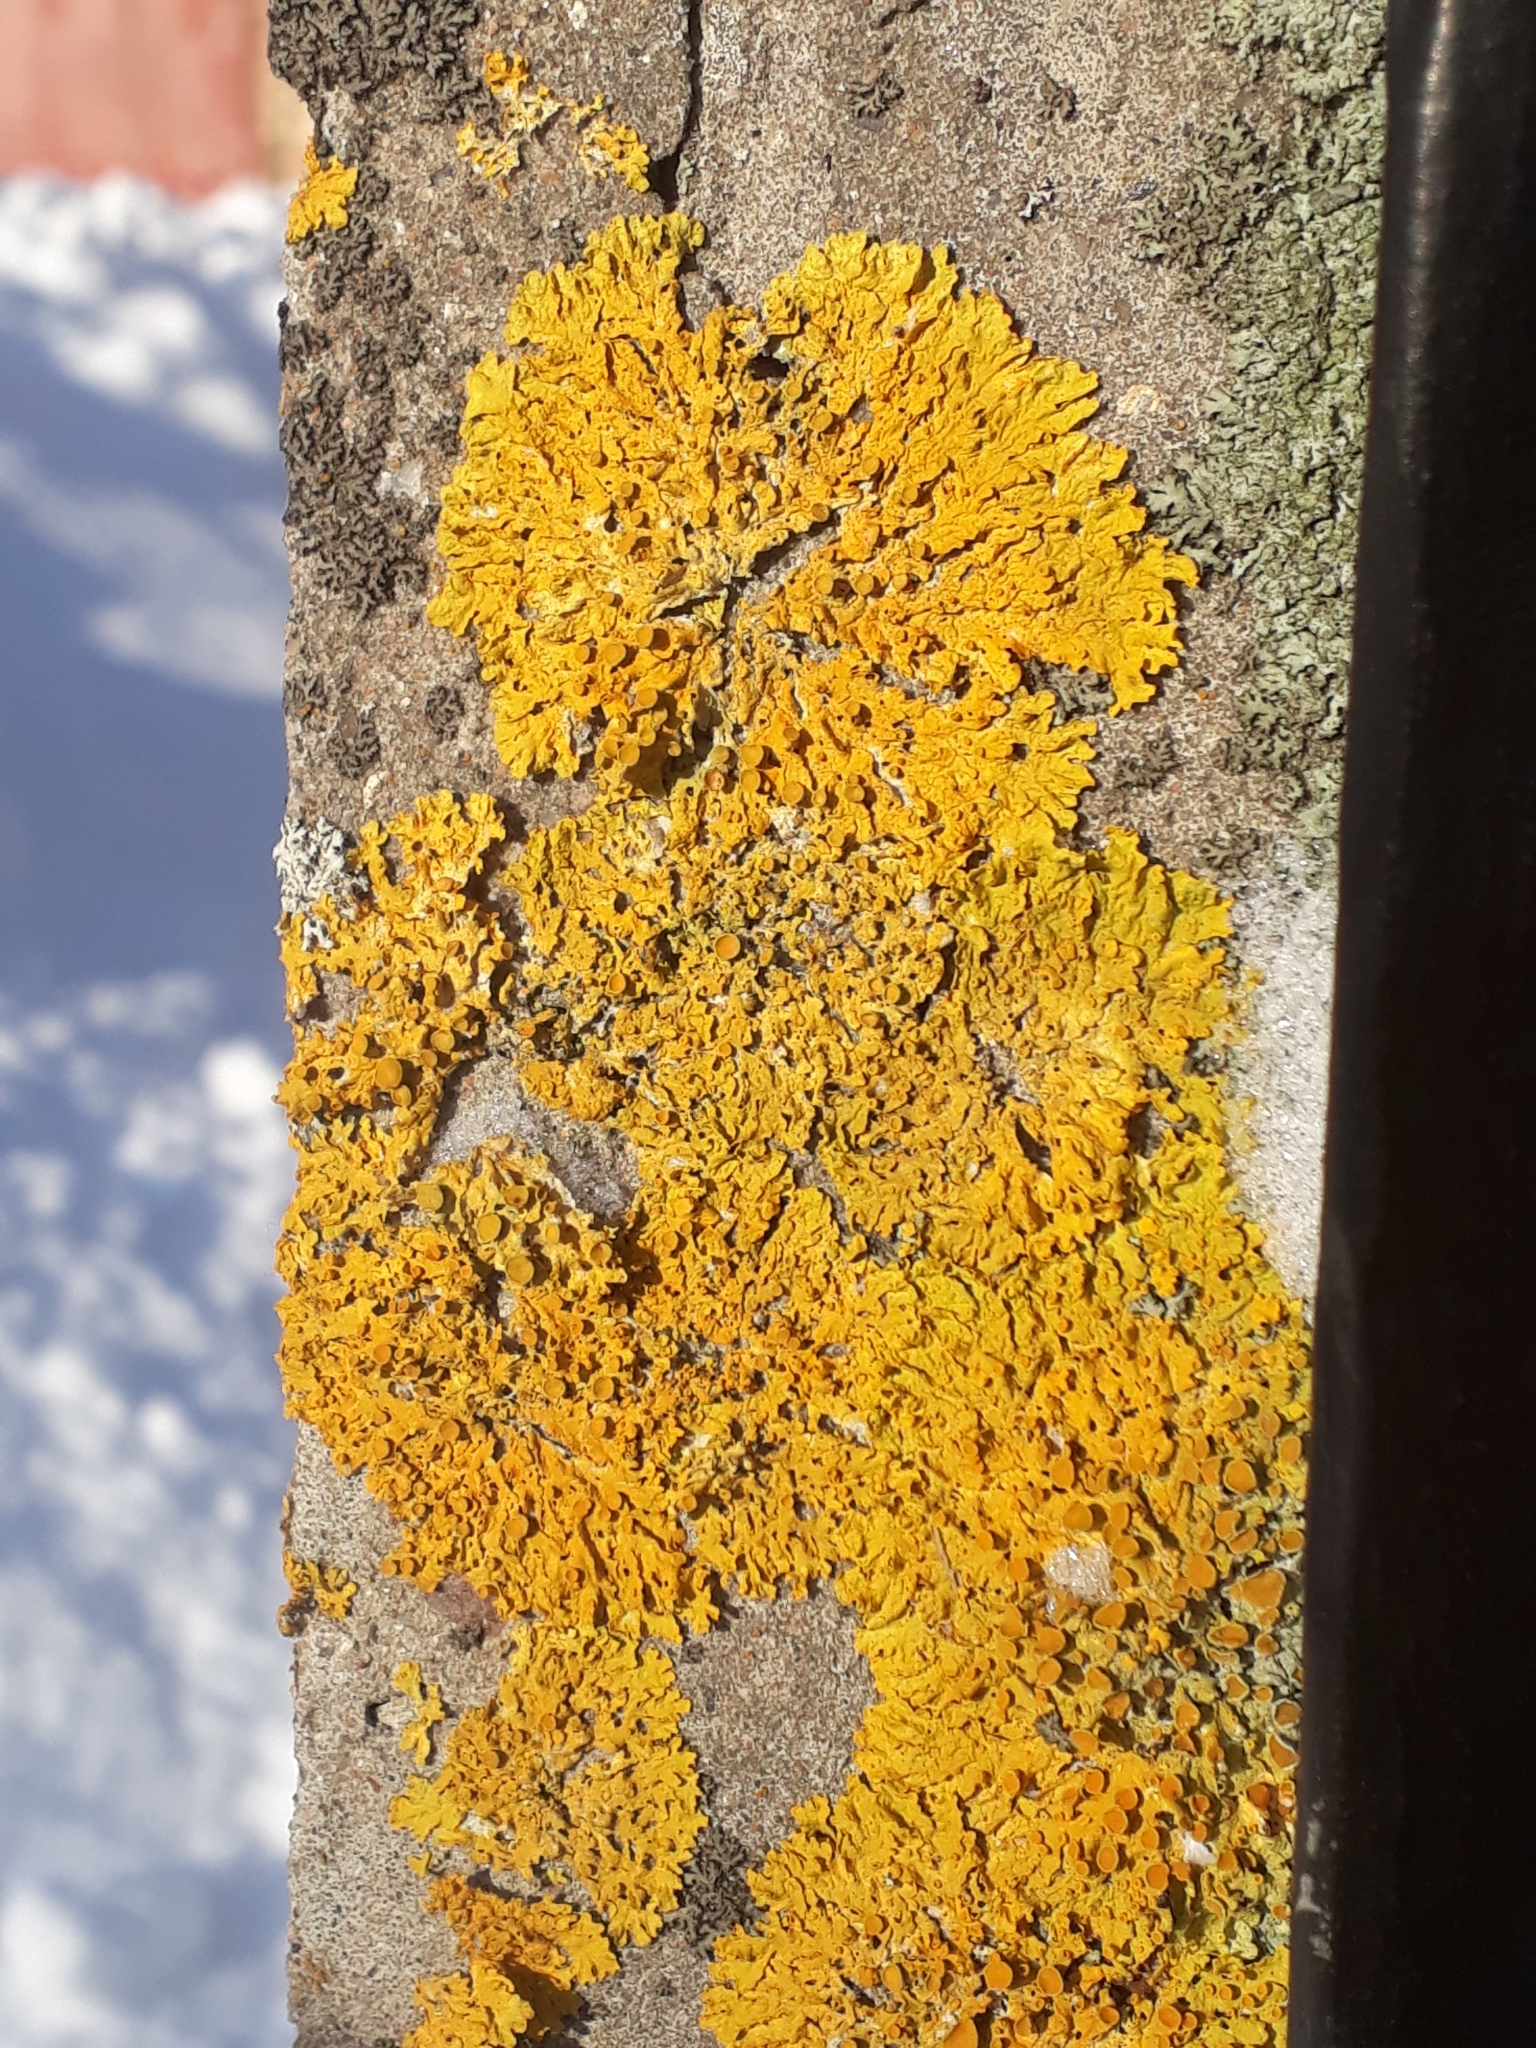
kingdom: Fungi
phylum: Ascomycota
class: Lecanoromycetes
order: Teloschistales
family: Teloschistaceae
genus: Xanthoria
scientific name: Xanthoria parietina
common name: Common orange lichen
